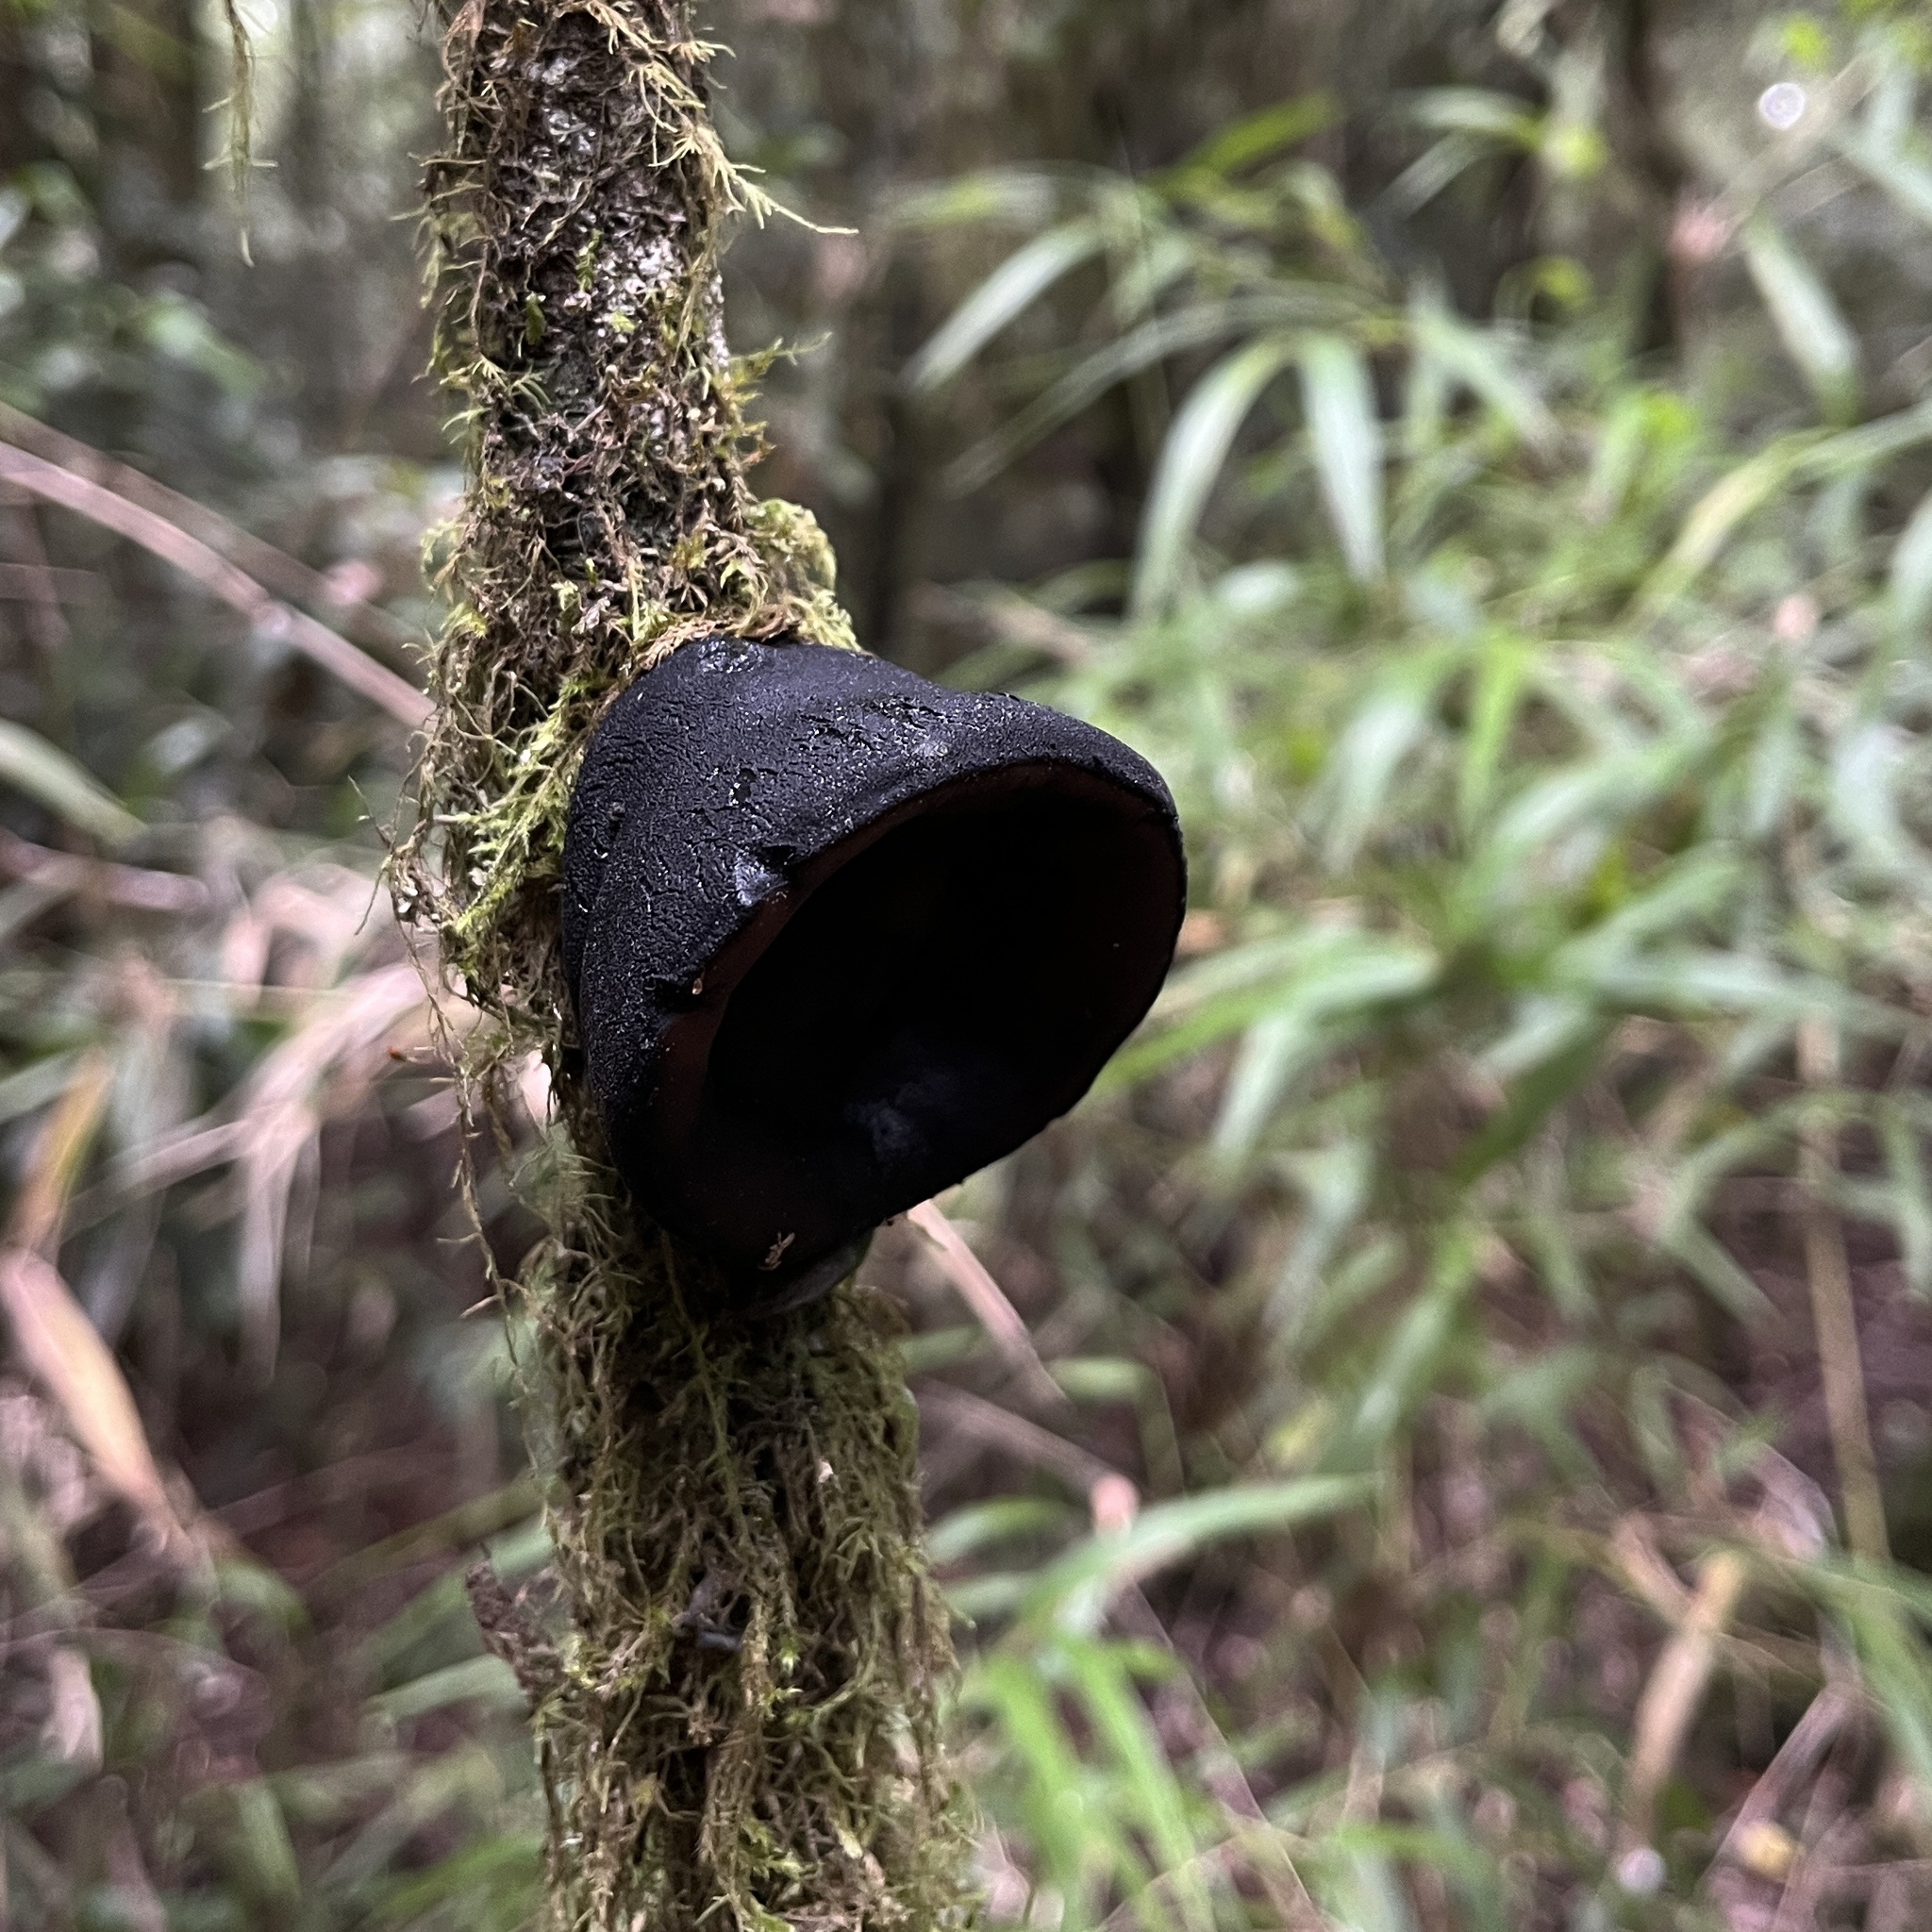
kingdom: Fungi
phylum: Ascomycota
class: Pezizomycetes
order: Pezizales
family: Sarcosomataceae
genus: Plectania
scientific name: Plectania chilensis
